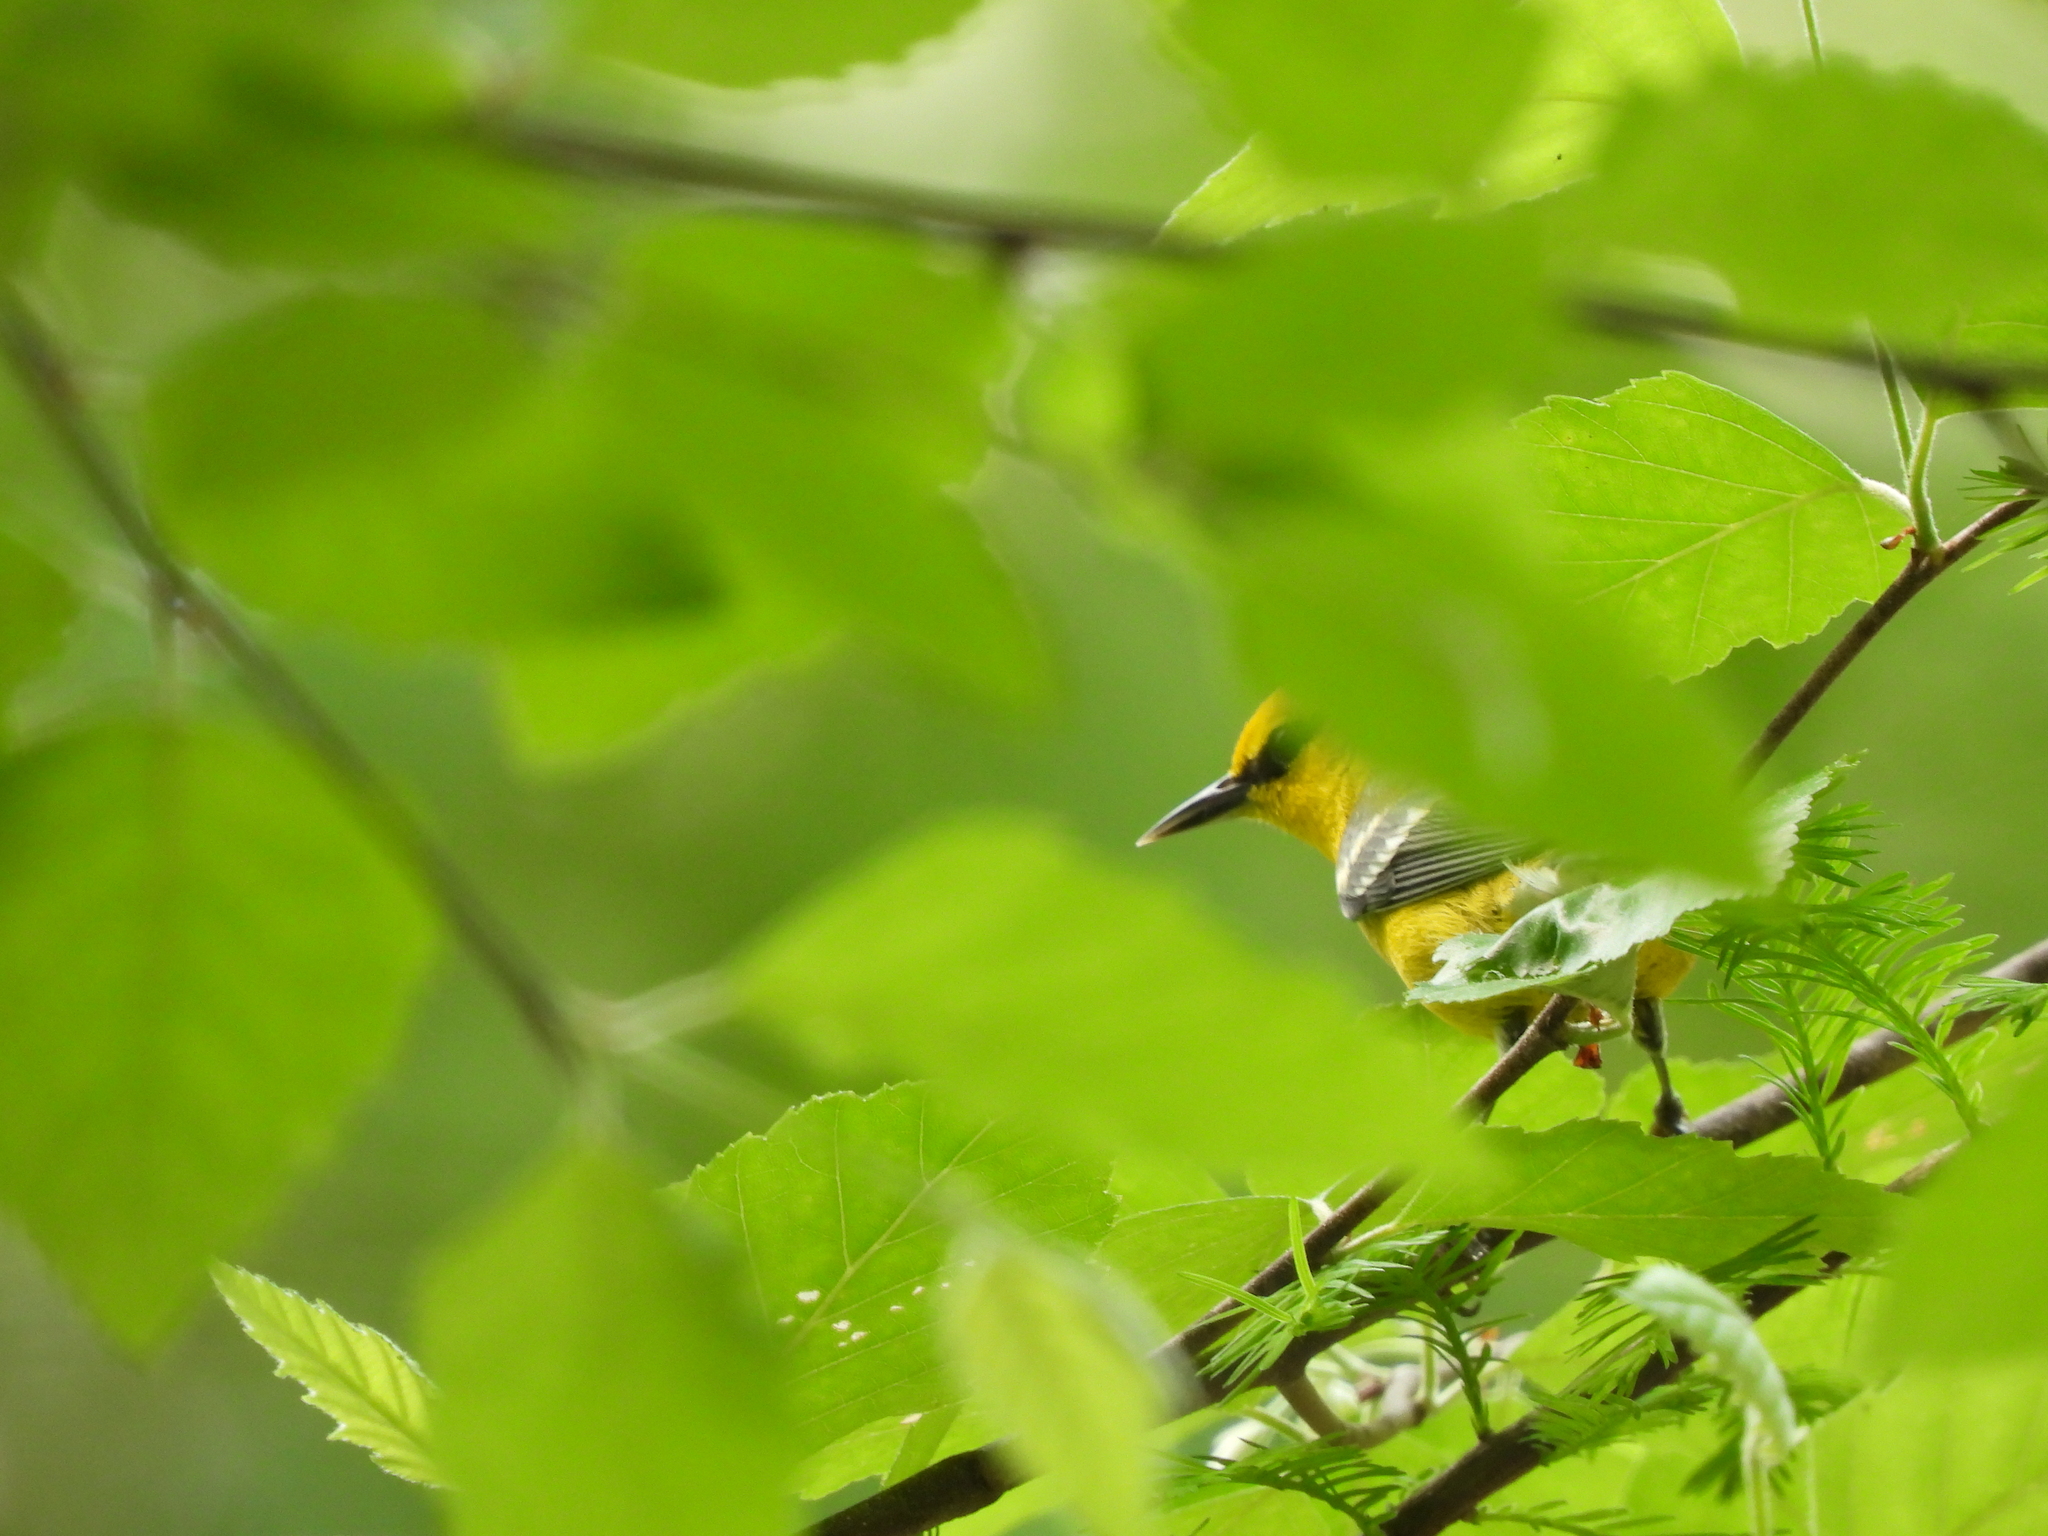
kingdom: Animalia
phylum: Chordata
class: Aves
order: Passeriformes
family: Parulidae
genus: Vermivora
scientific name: Vermivora cyanoptera
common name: Blue-winged warbler
